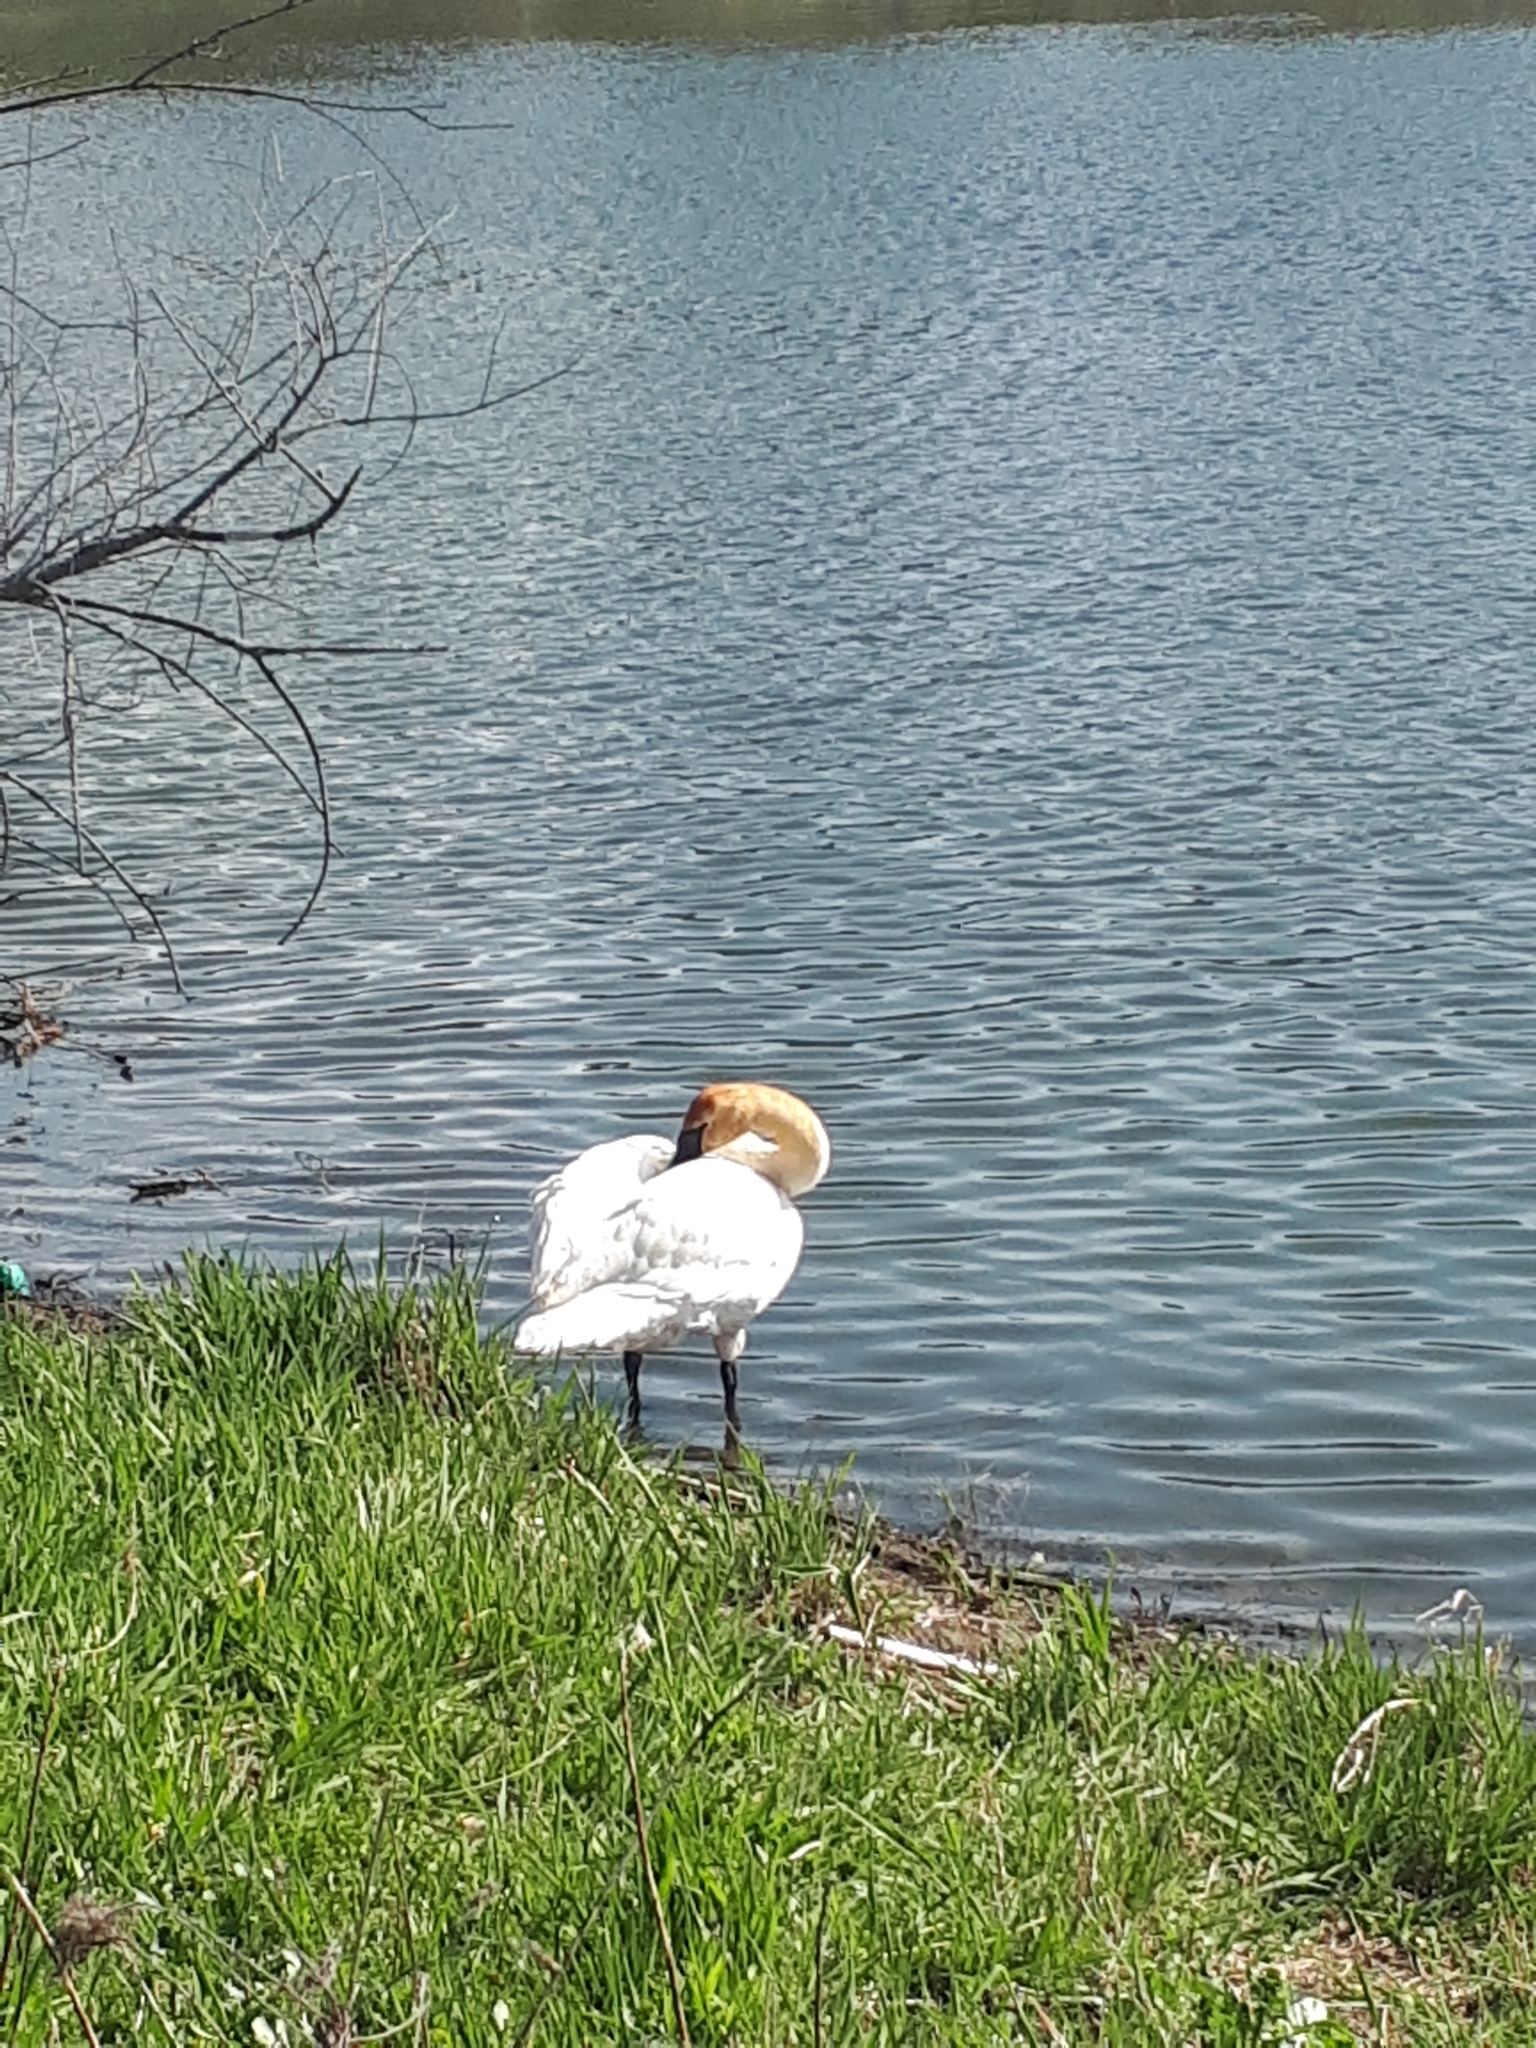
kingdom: Animalia
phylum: Chordata
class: Aves
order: Anseriformes
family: Anatidae
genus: Cygnus
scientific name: Cygnus buccinator
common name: Trumpeter swan
